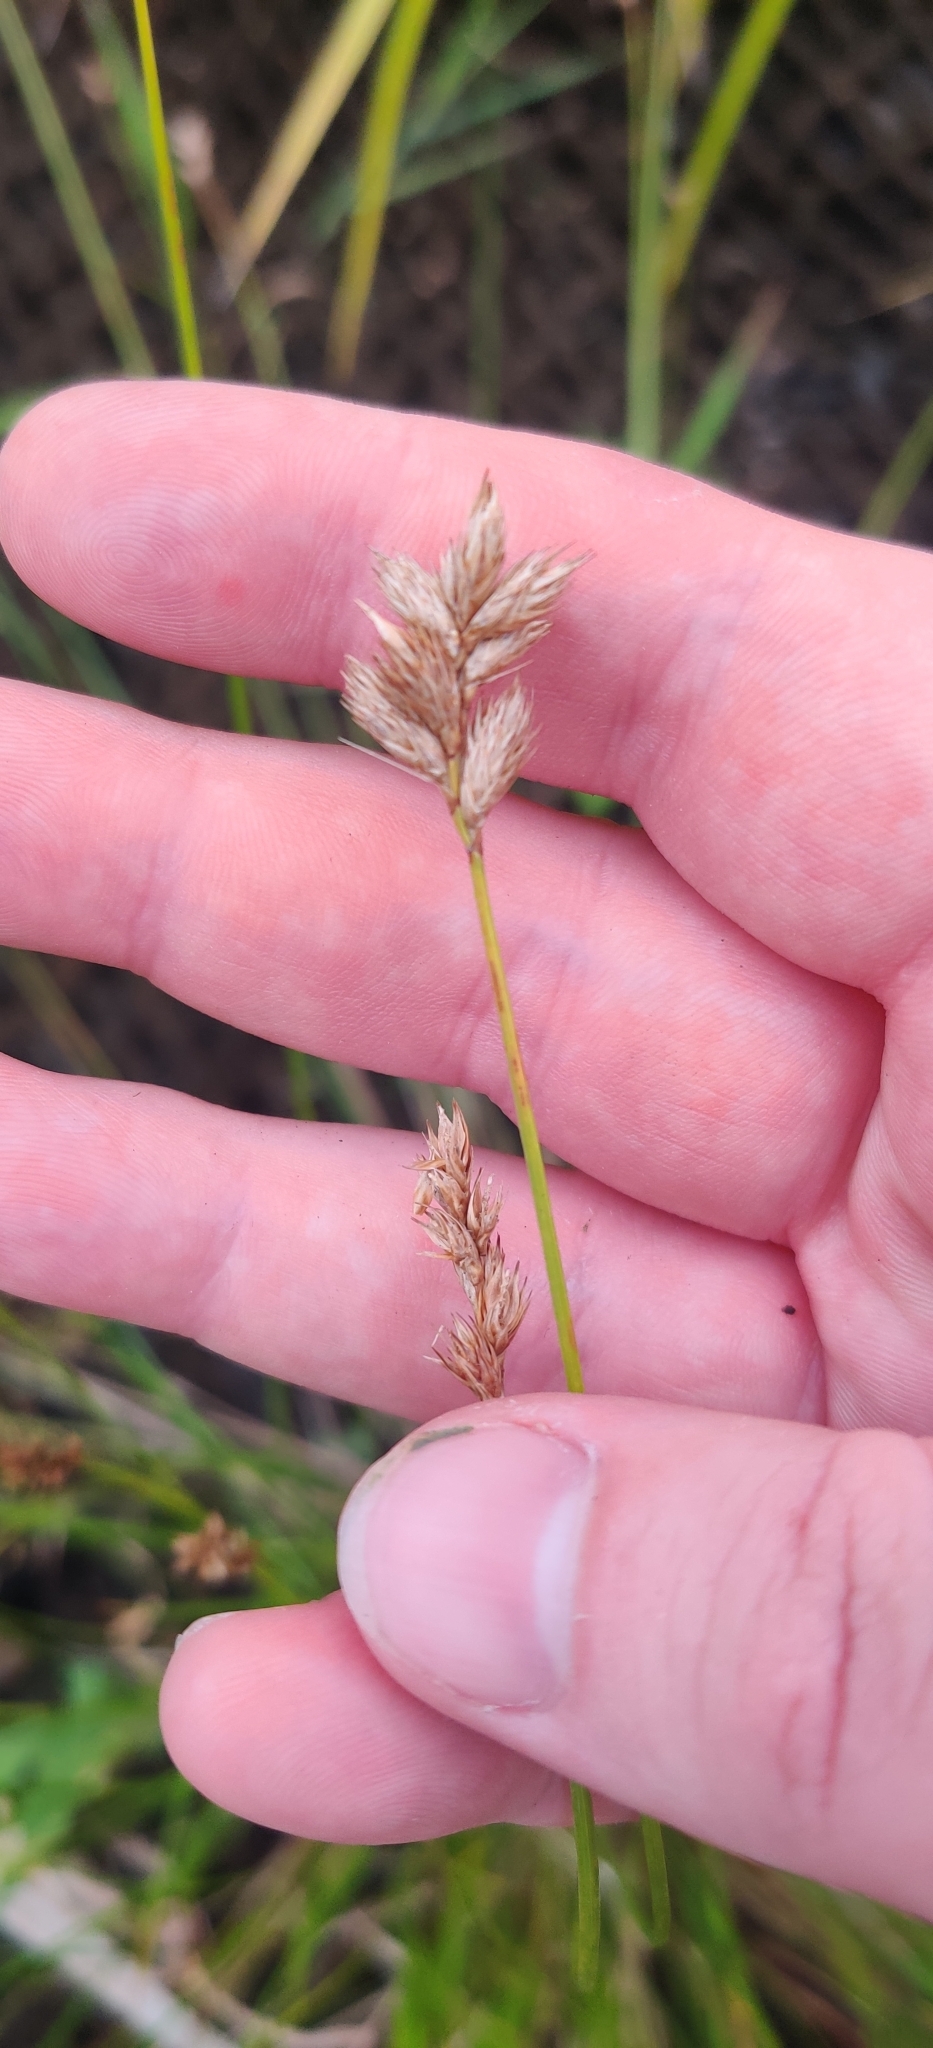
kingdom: Plantae
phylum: Tracheophyta
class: Liliopsida
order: Poales
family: Cyperaceae
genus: Carex
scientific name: Carex scoparia
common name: Broom sedge
